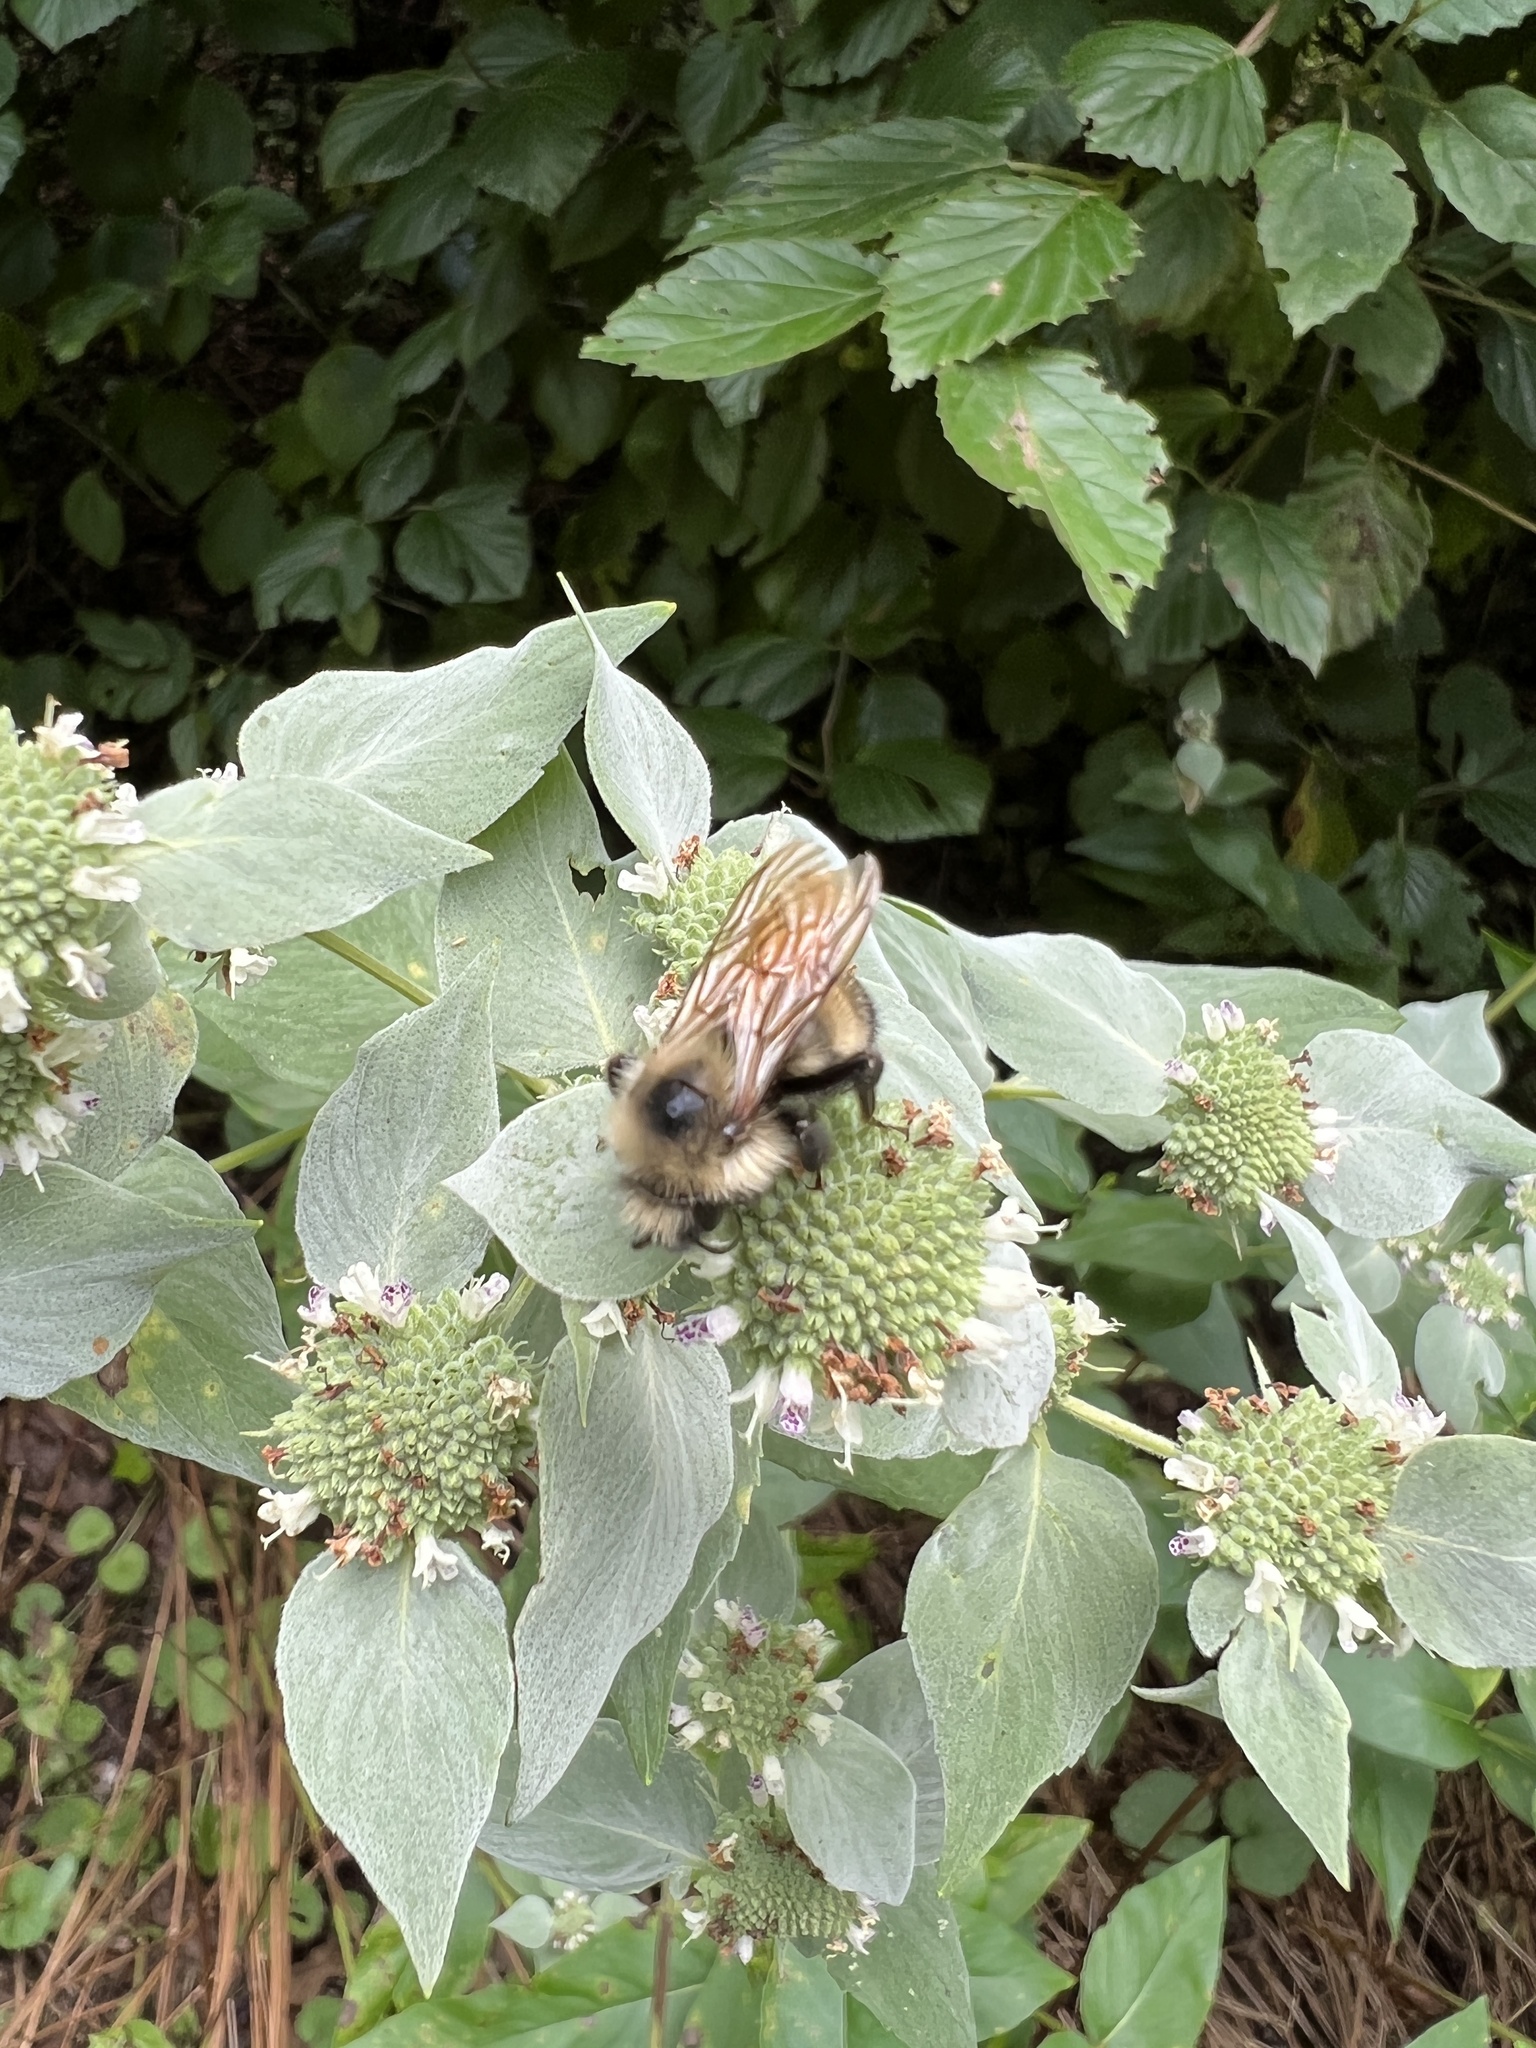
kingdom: Animalia
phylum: Arthropoda
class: Insecta
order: Hymenoptera
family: Apidae
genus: Bombus
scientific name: Bombus citrinus
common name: Lemon cuckoo bumble bee
